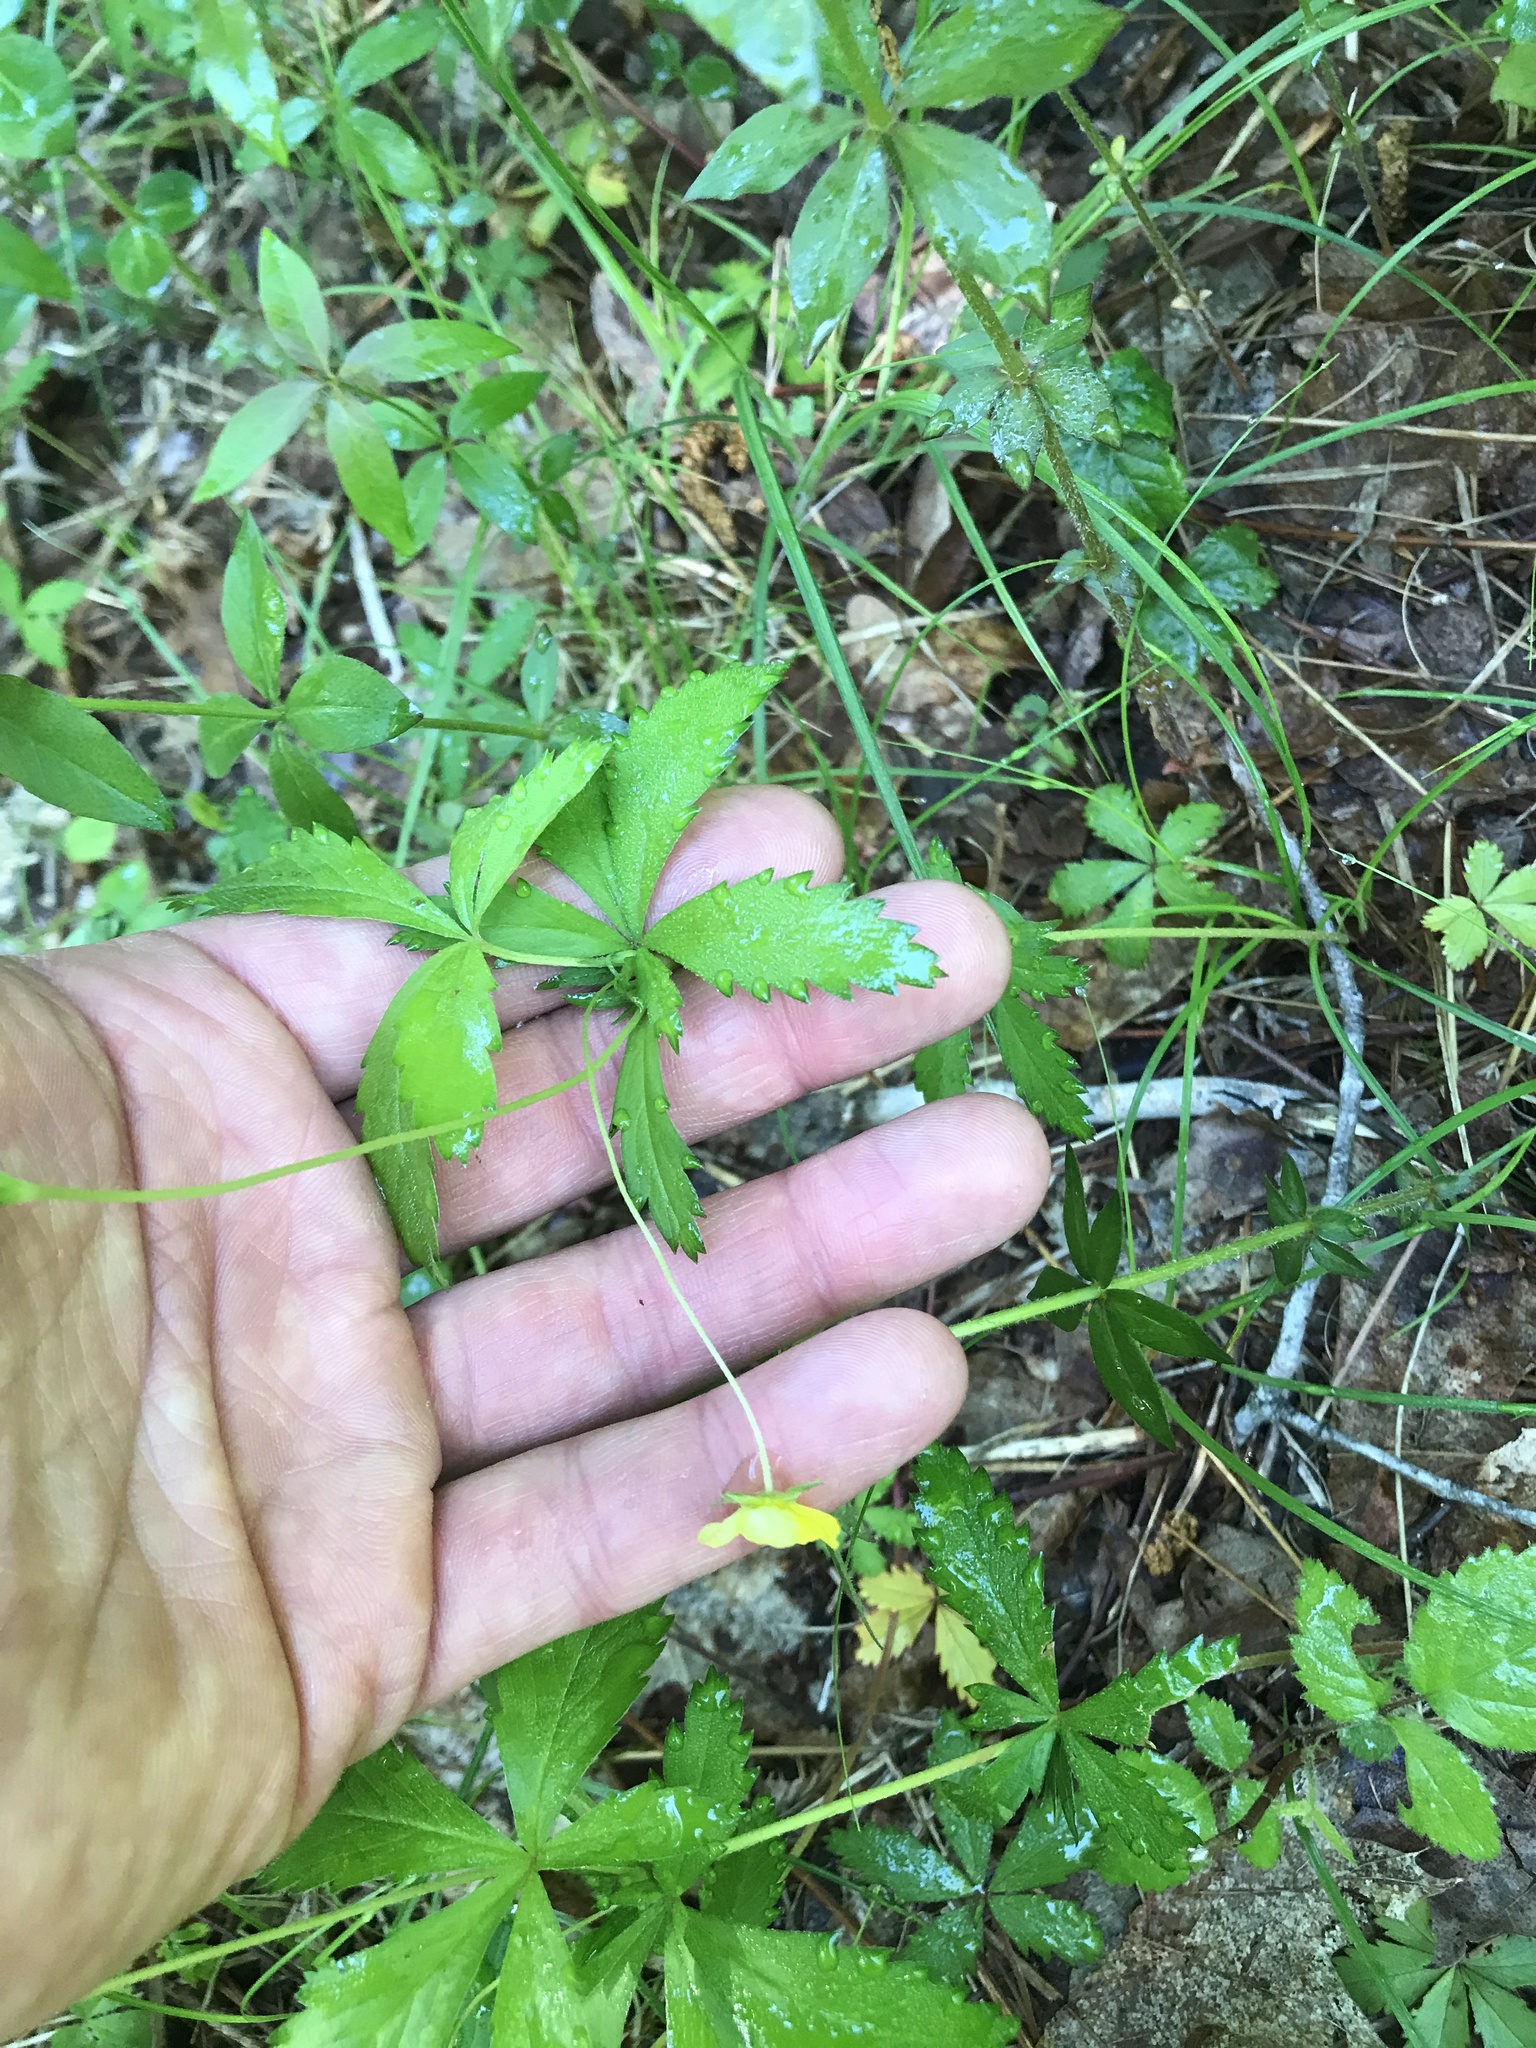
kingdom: Plantae
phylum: Tracheophyta
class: Magnoliopsida
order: Rosales
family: Rosaceae
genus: Potentilla
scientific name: Potentilla canadensis
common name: Canada cinquefoil
